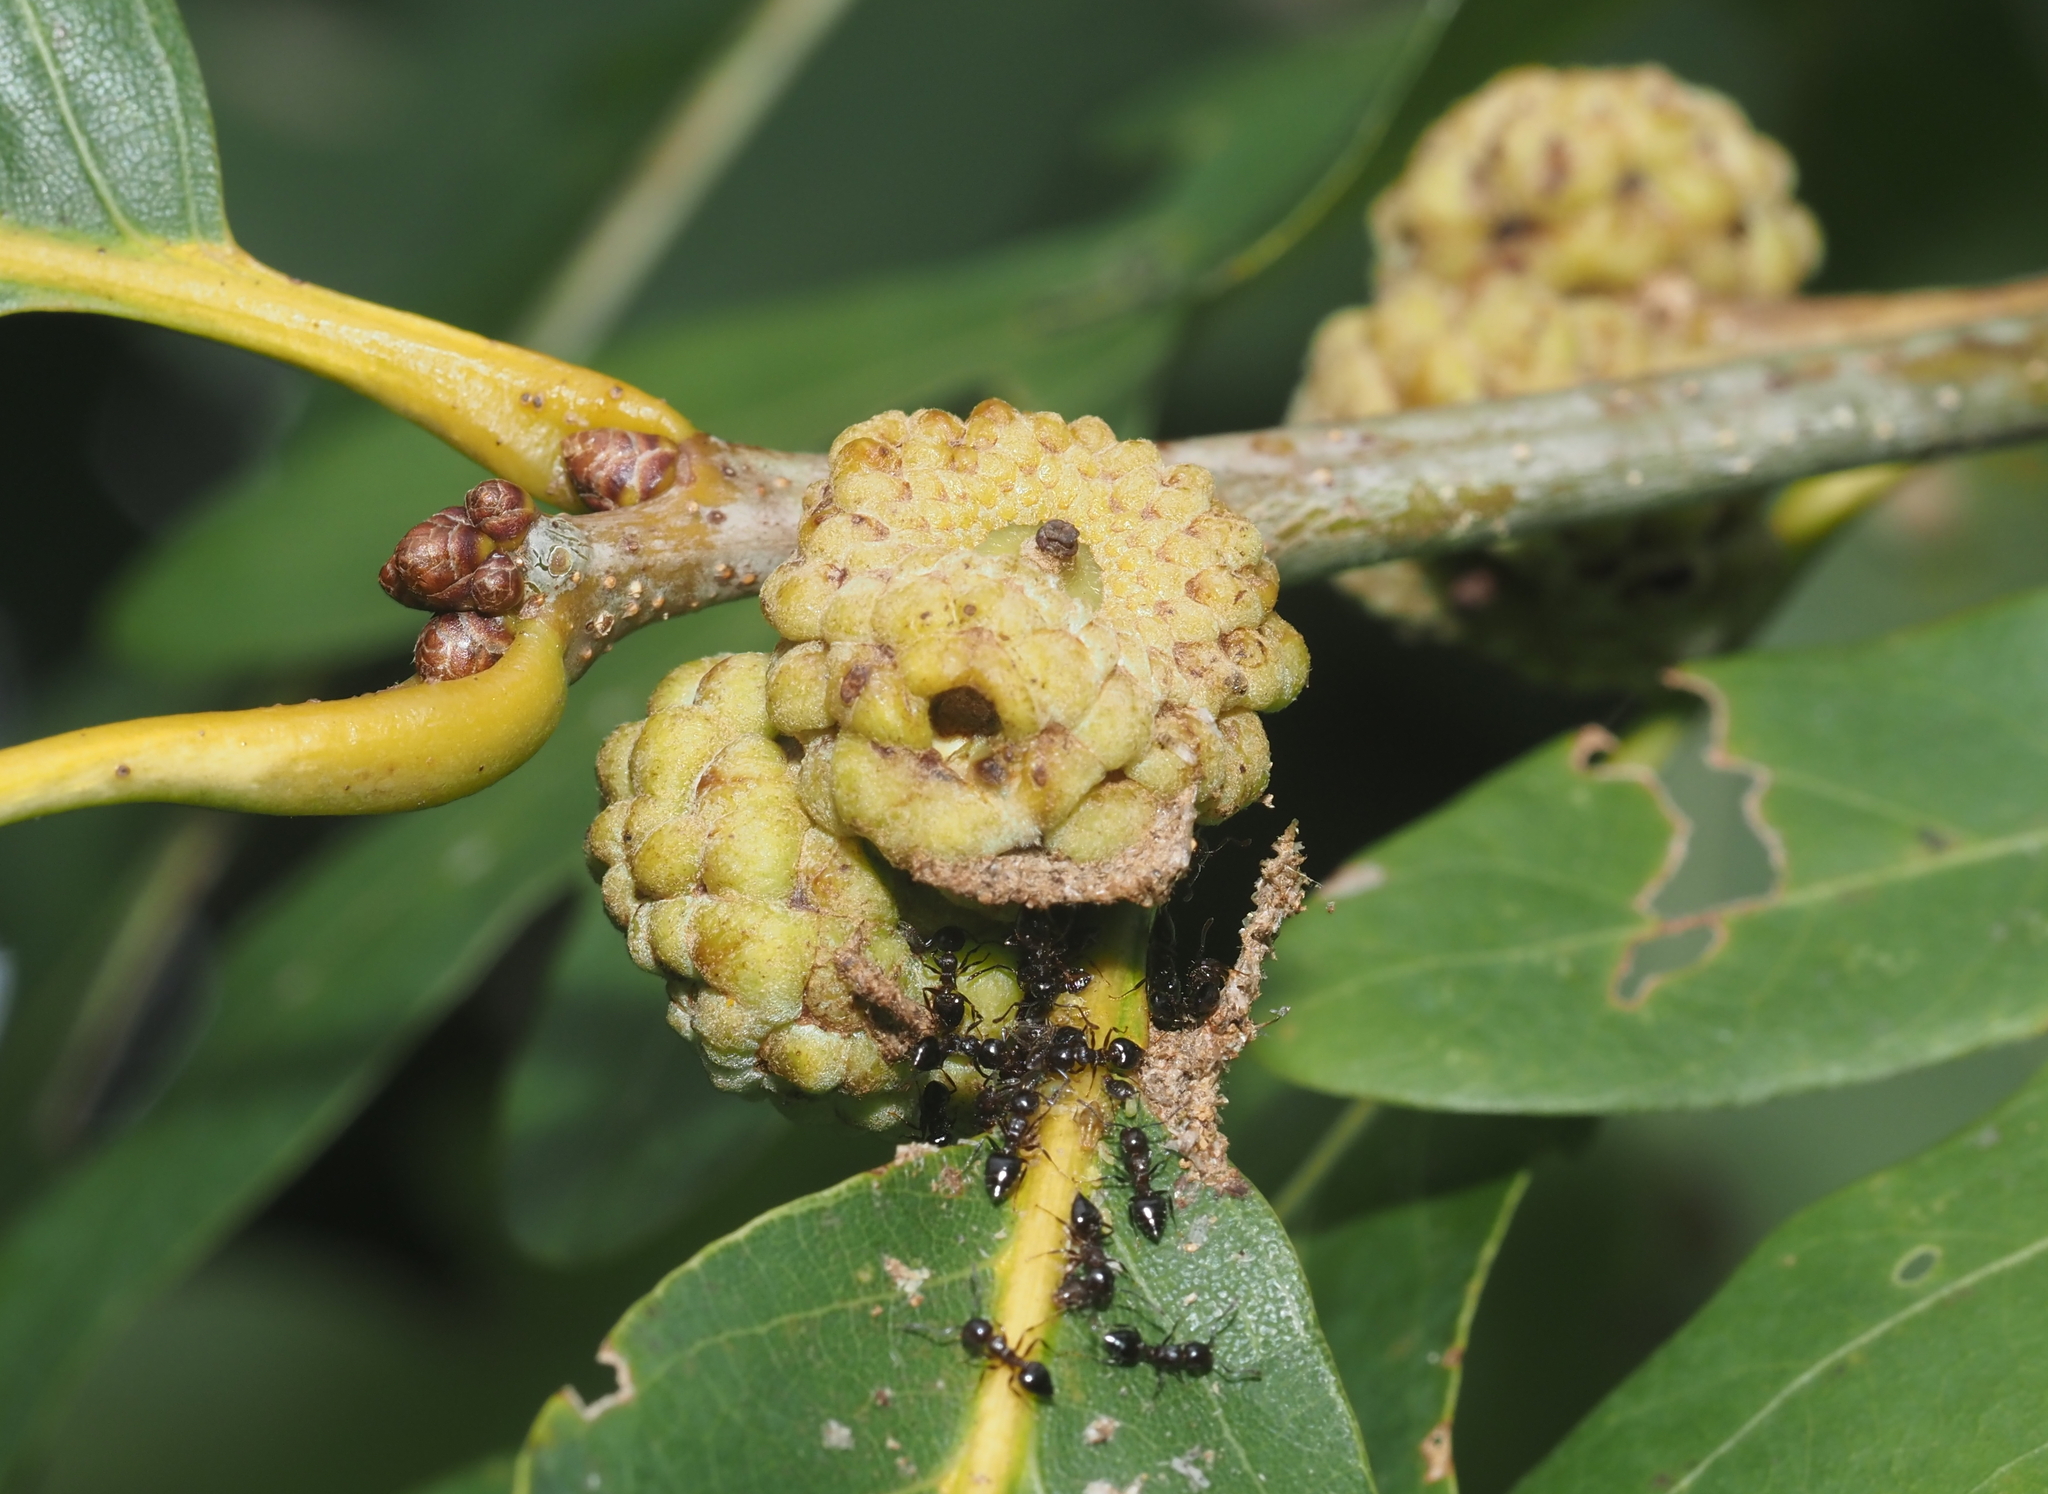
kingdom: Animalia
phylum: Arthropoda
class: Insecta
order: Hymenoptera
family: Cynipidae
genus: Callirhytis
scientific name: Callirhytis glandium
